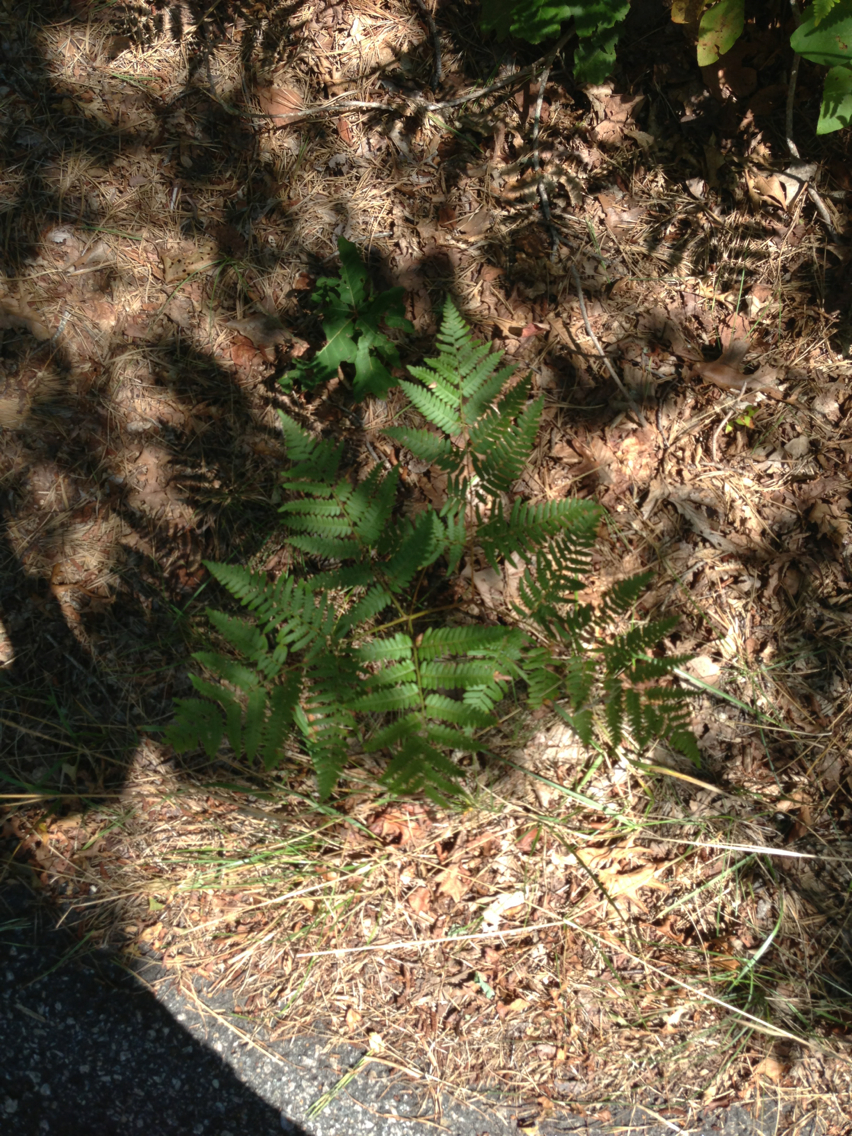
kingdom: Plantae
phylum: Tracheophyta
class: Polypodiopsida
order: Polypodiales
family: Dennstaedtiaceae
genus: Pteridium
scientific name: Pteridium aquilinum
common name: Bracken
